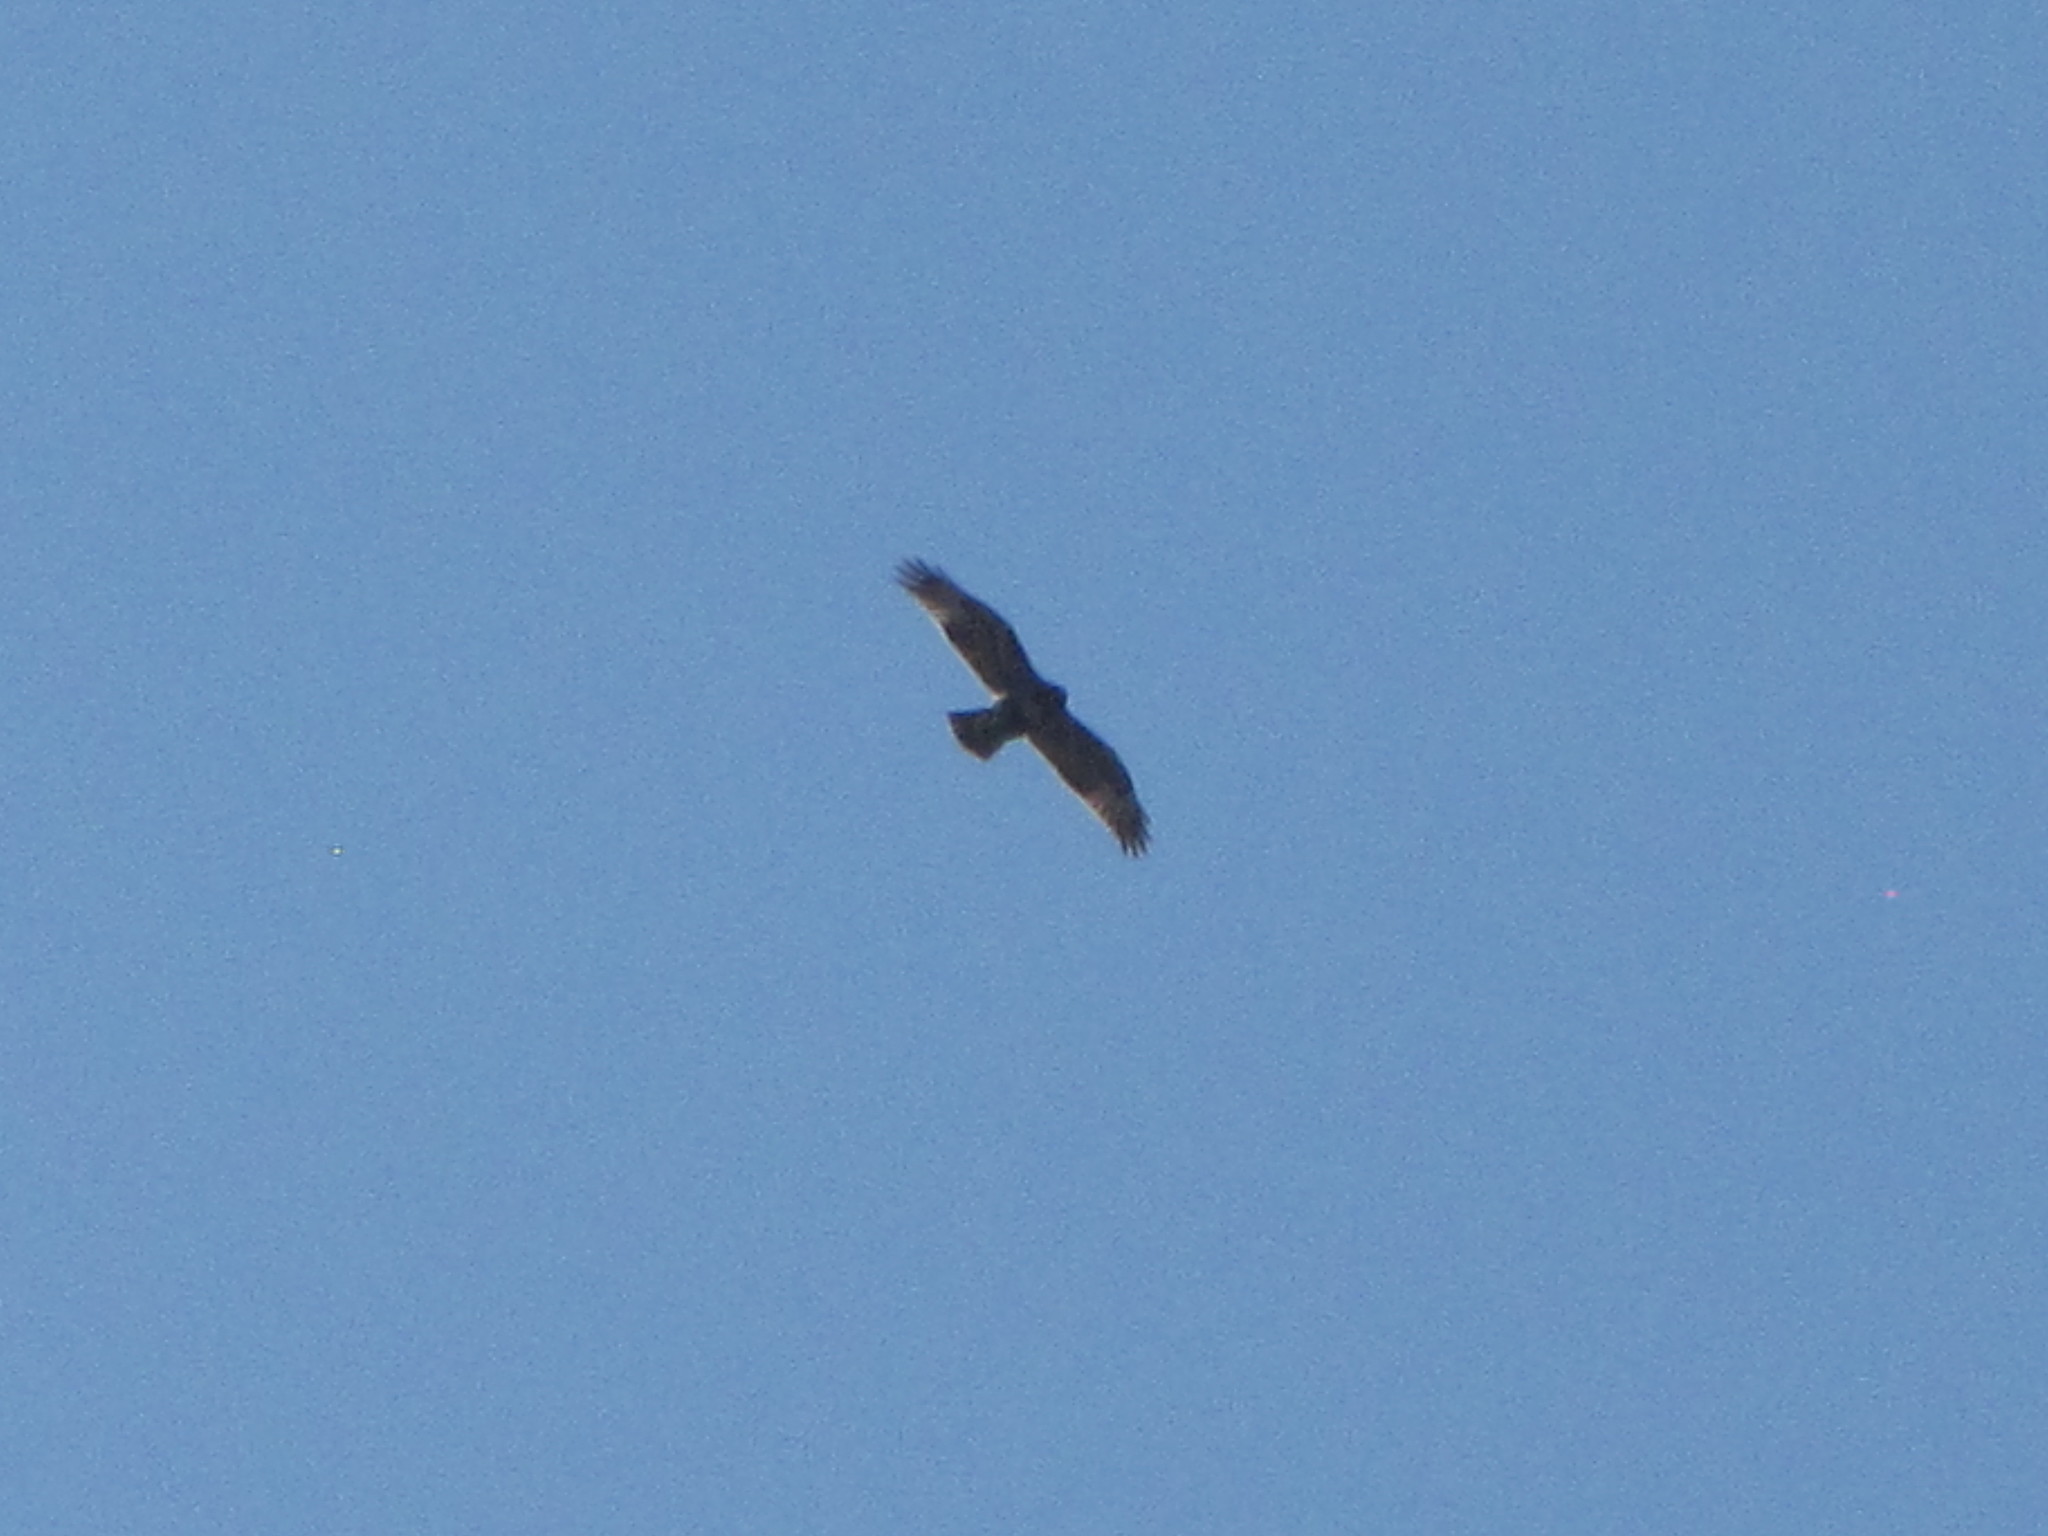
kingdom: Animalia
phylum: Chordata
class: Aves
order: Accipitriformes
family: Accipitridae
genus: Buteo
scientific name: Buteo jamaicensis
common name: Red-tailed hawk
